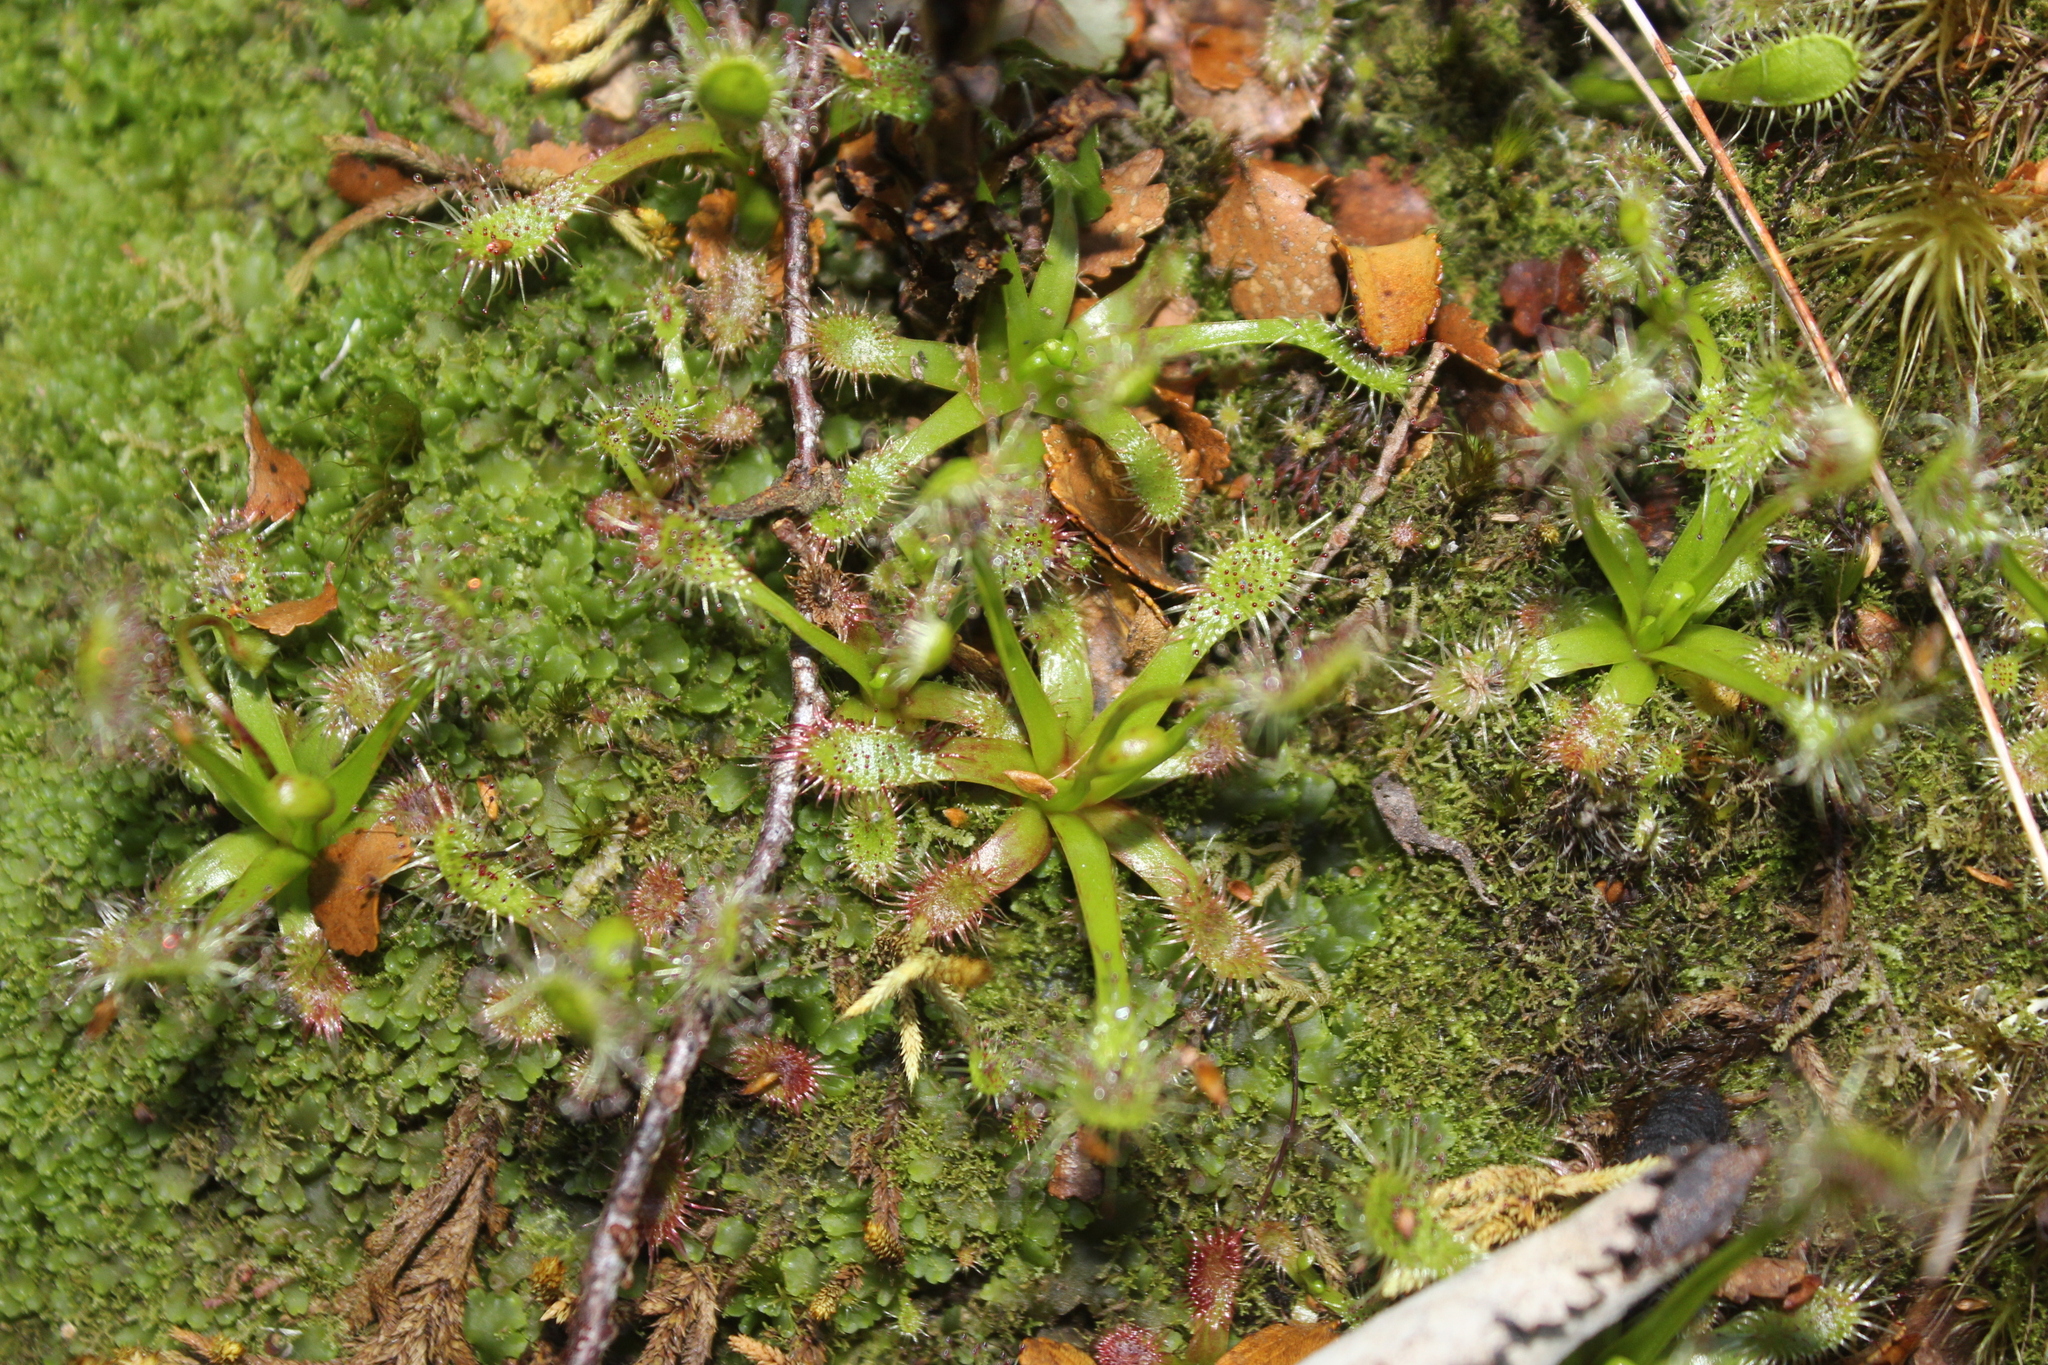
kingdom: Plantae
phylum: Tracheophyta
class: Magnoliopsida
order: Caryophyllales
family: Droseraceae
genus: Drosera
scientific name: Drosera stenopetala
